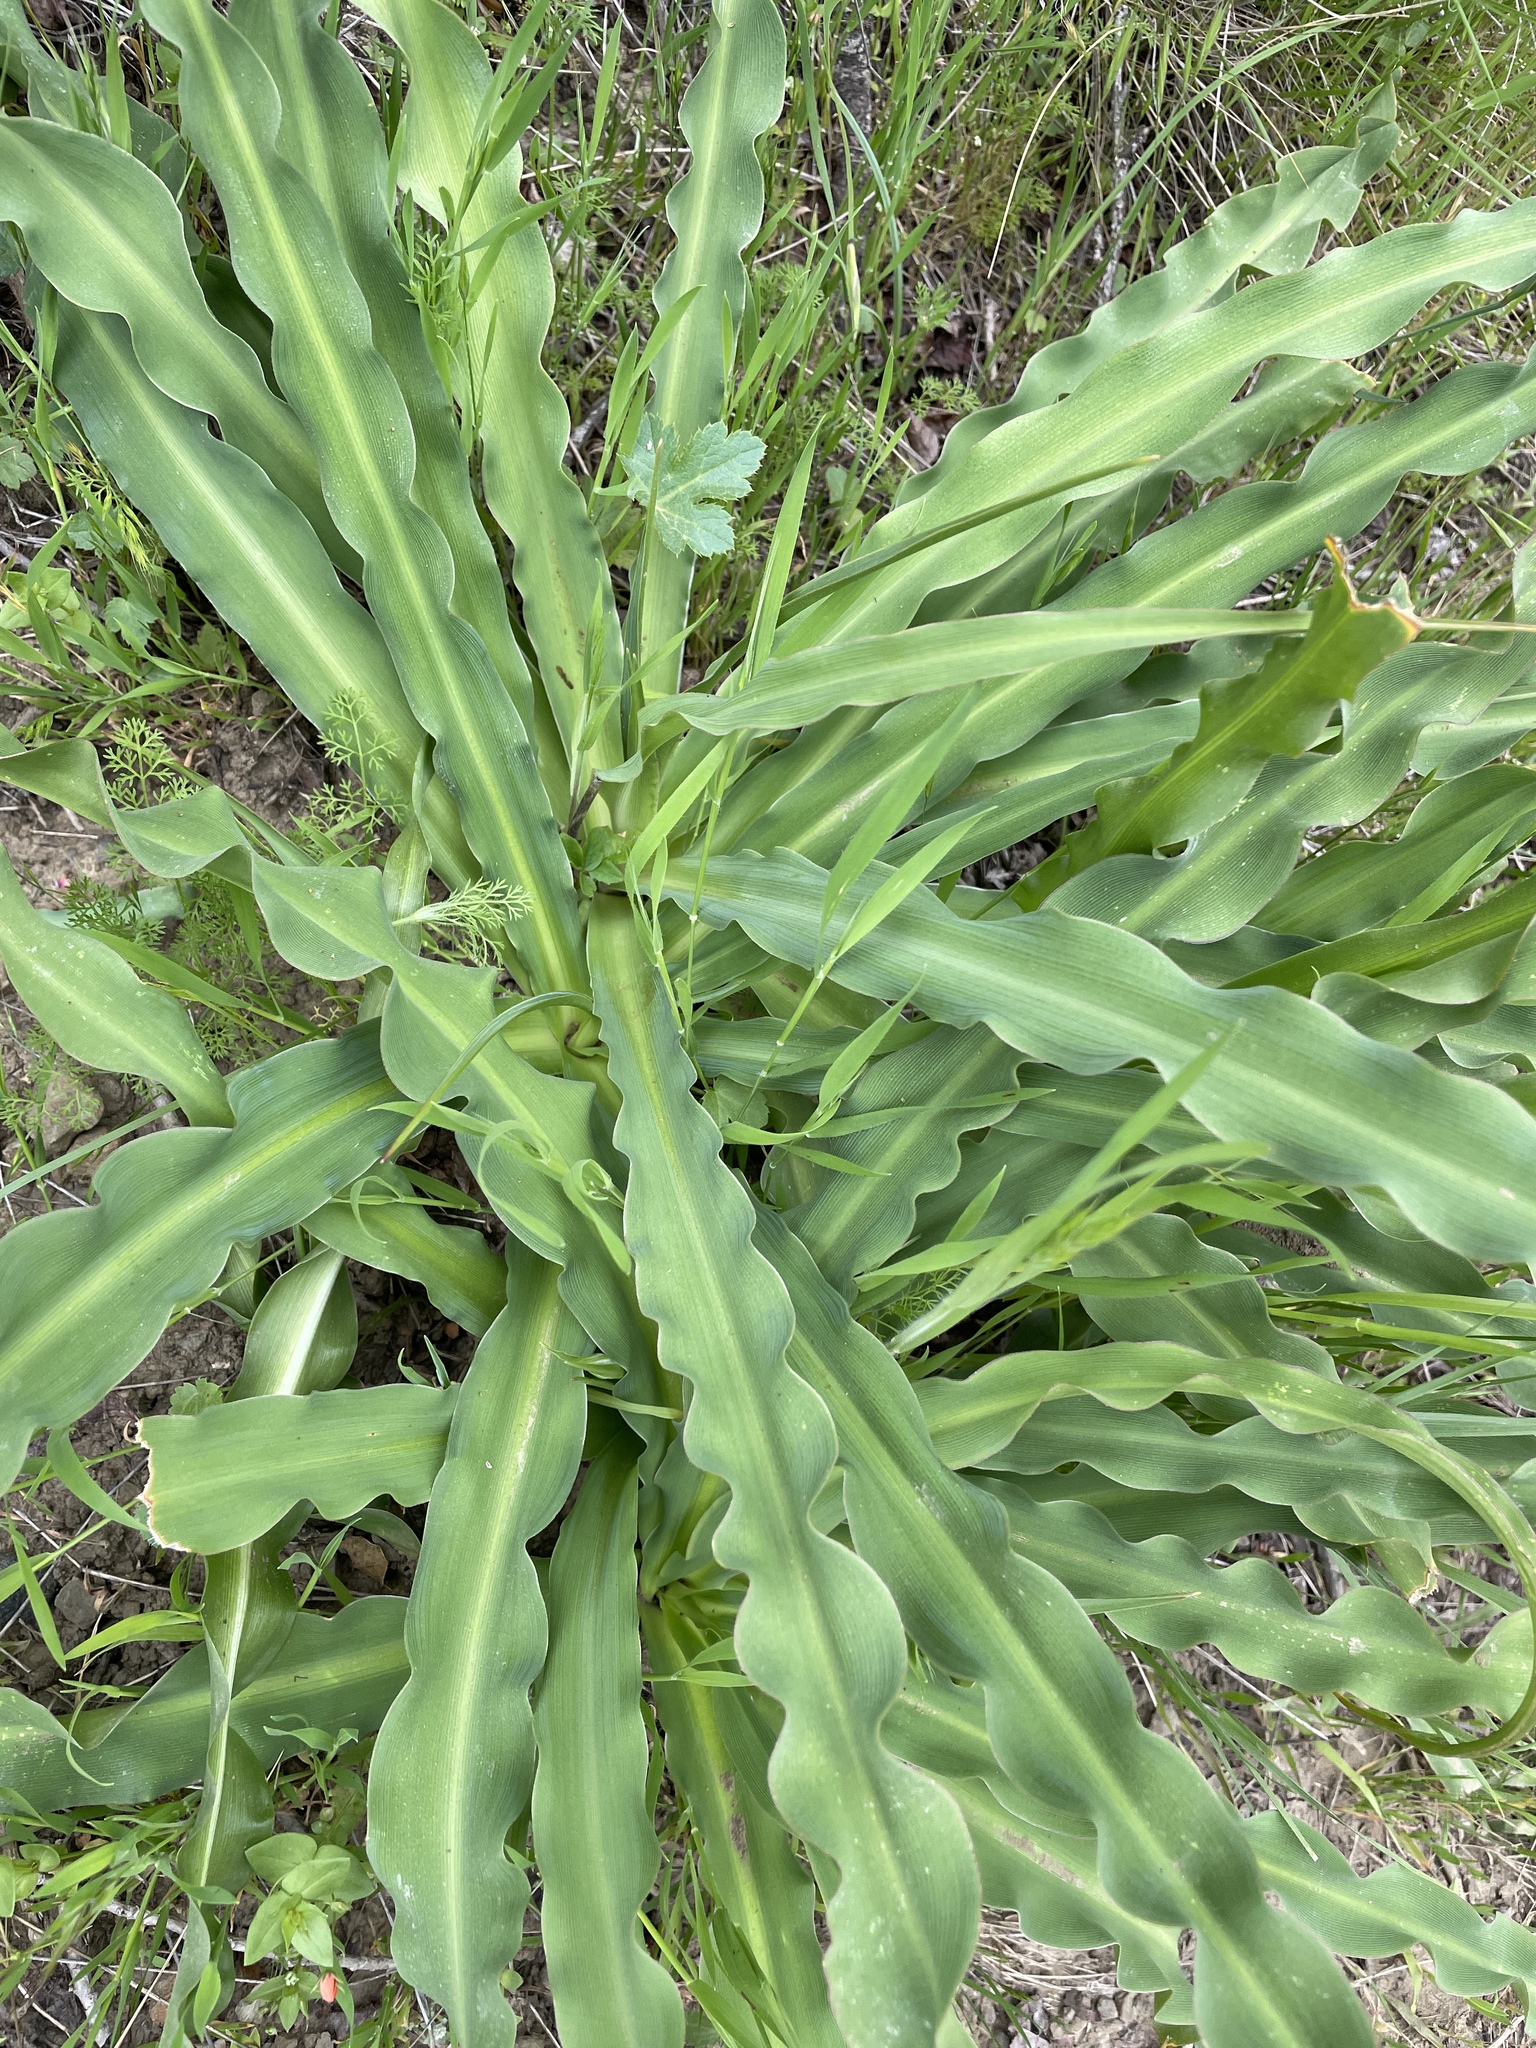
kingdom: Plantae
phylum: Tracheophyta
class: Liliopsida
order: Asparagales
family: Asparagaceae
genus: Chlorogalum
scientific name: Chlorogalum pomeridianum
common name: Amole
